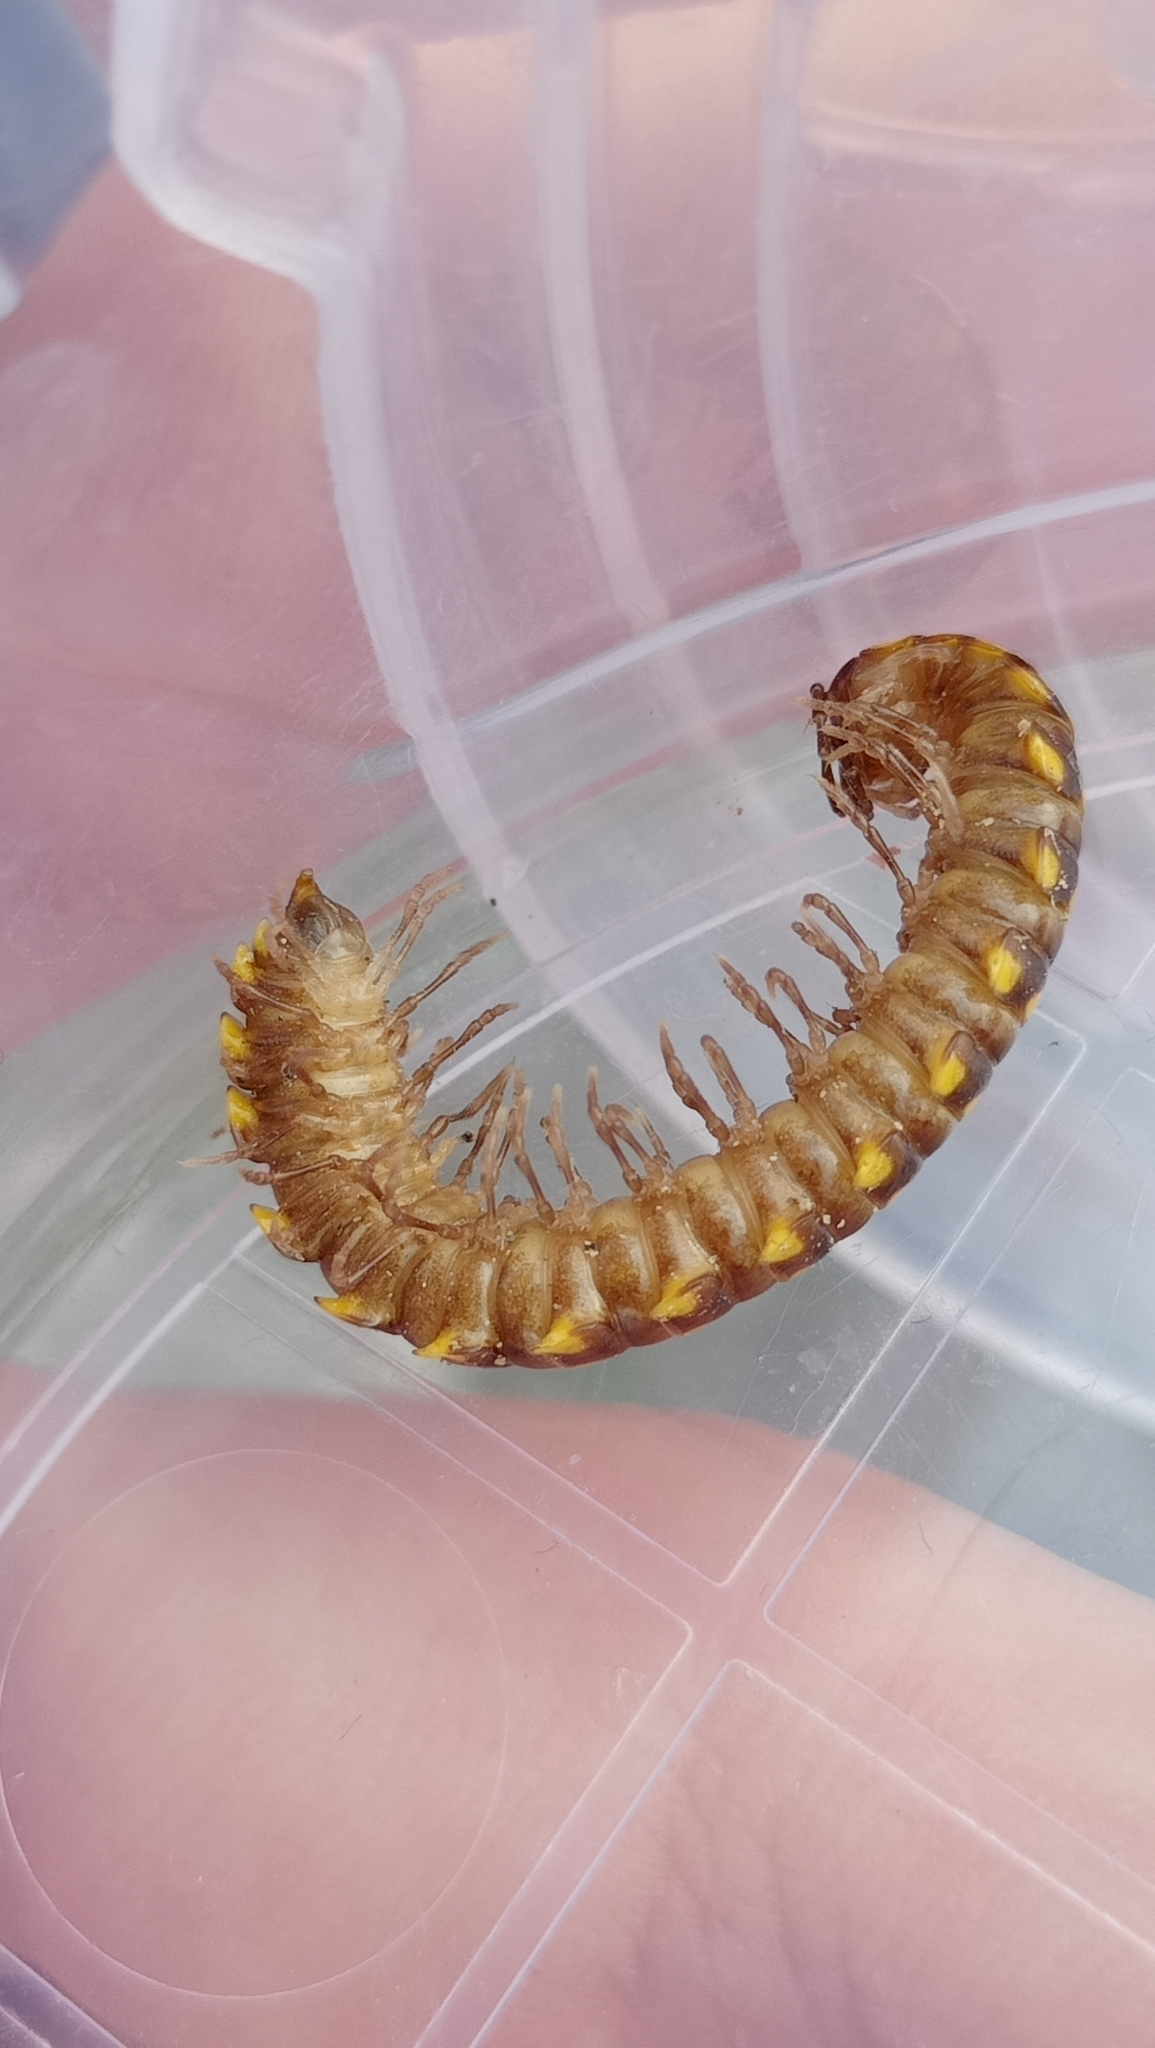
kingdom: Animalia
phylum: Arthropoda
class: Diplopoda
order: Polydesmida
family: Xystodesmidae
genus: Melaphe
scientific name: Melaphe vestita
